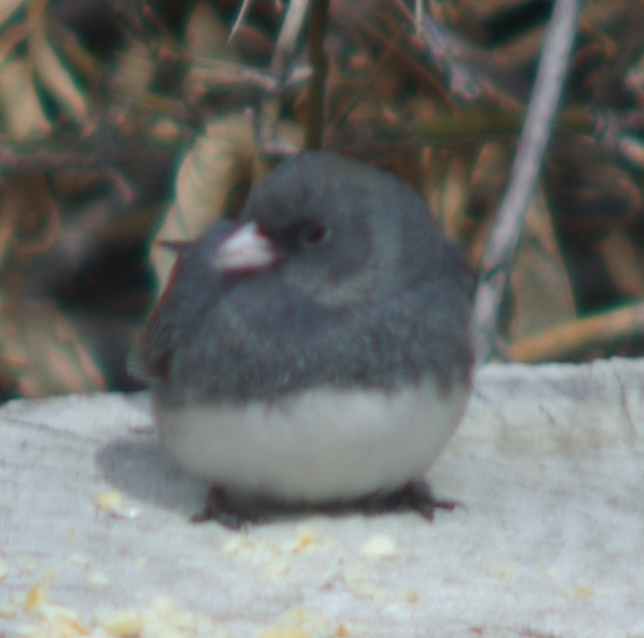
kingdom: Animalia
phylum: Chordata
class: Aves
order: Passeriformes
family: Passerellidae
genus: Junco
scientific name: Junco hyemalis
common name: Dark-eyed junco
